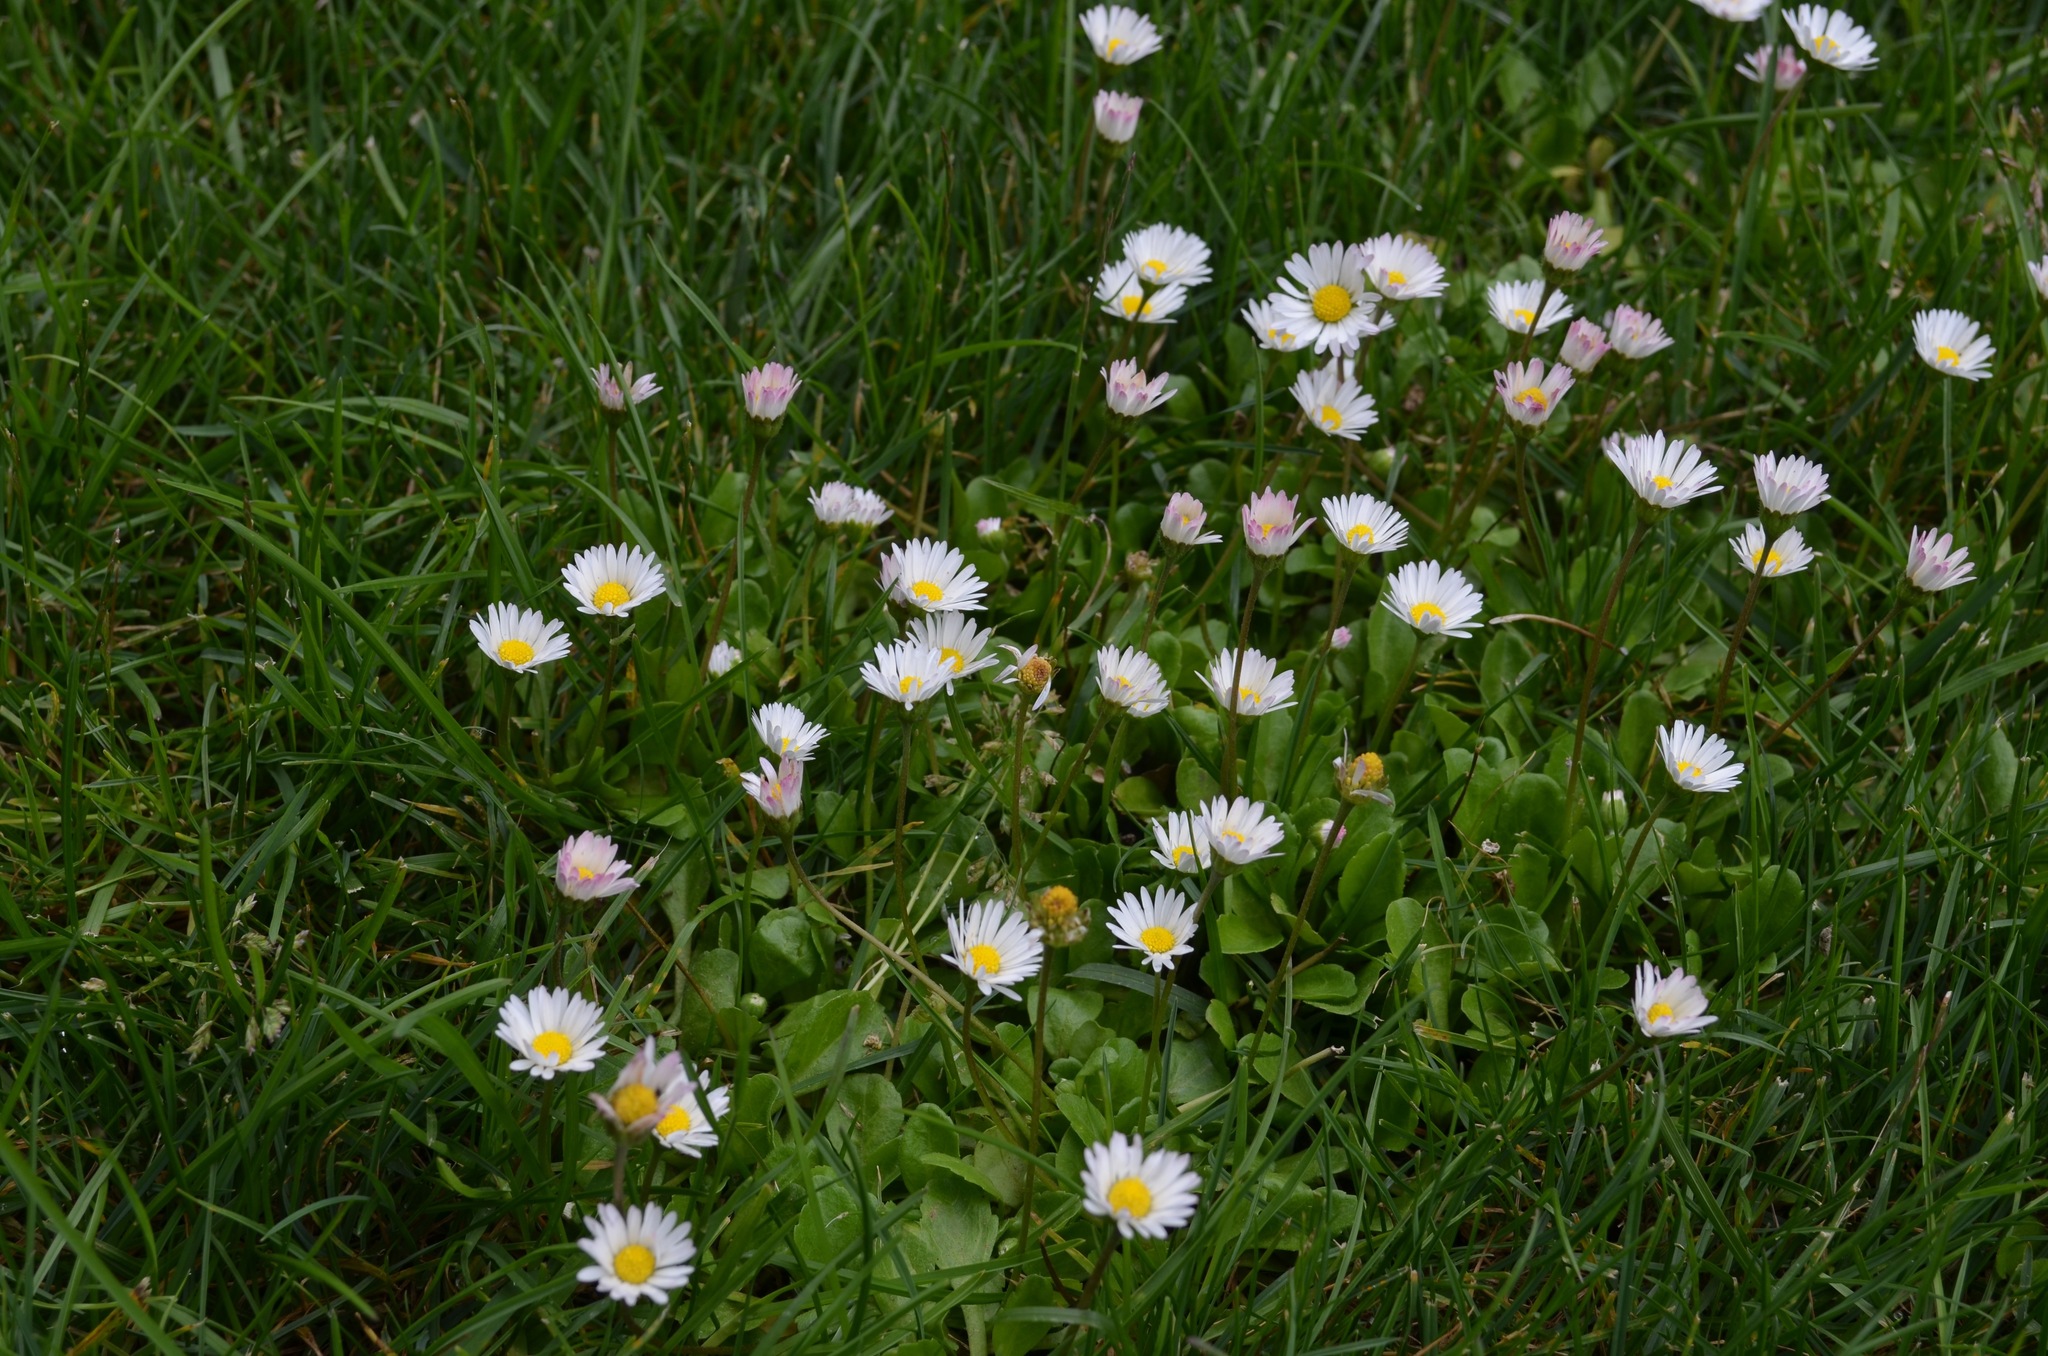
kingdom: Plantae
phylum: Tracheophyta
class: Magnoliopsida
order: Asterales
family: Asteraceae
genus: Bellis
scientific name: Bellis perennis
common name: Lawndaisy
